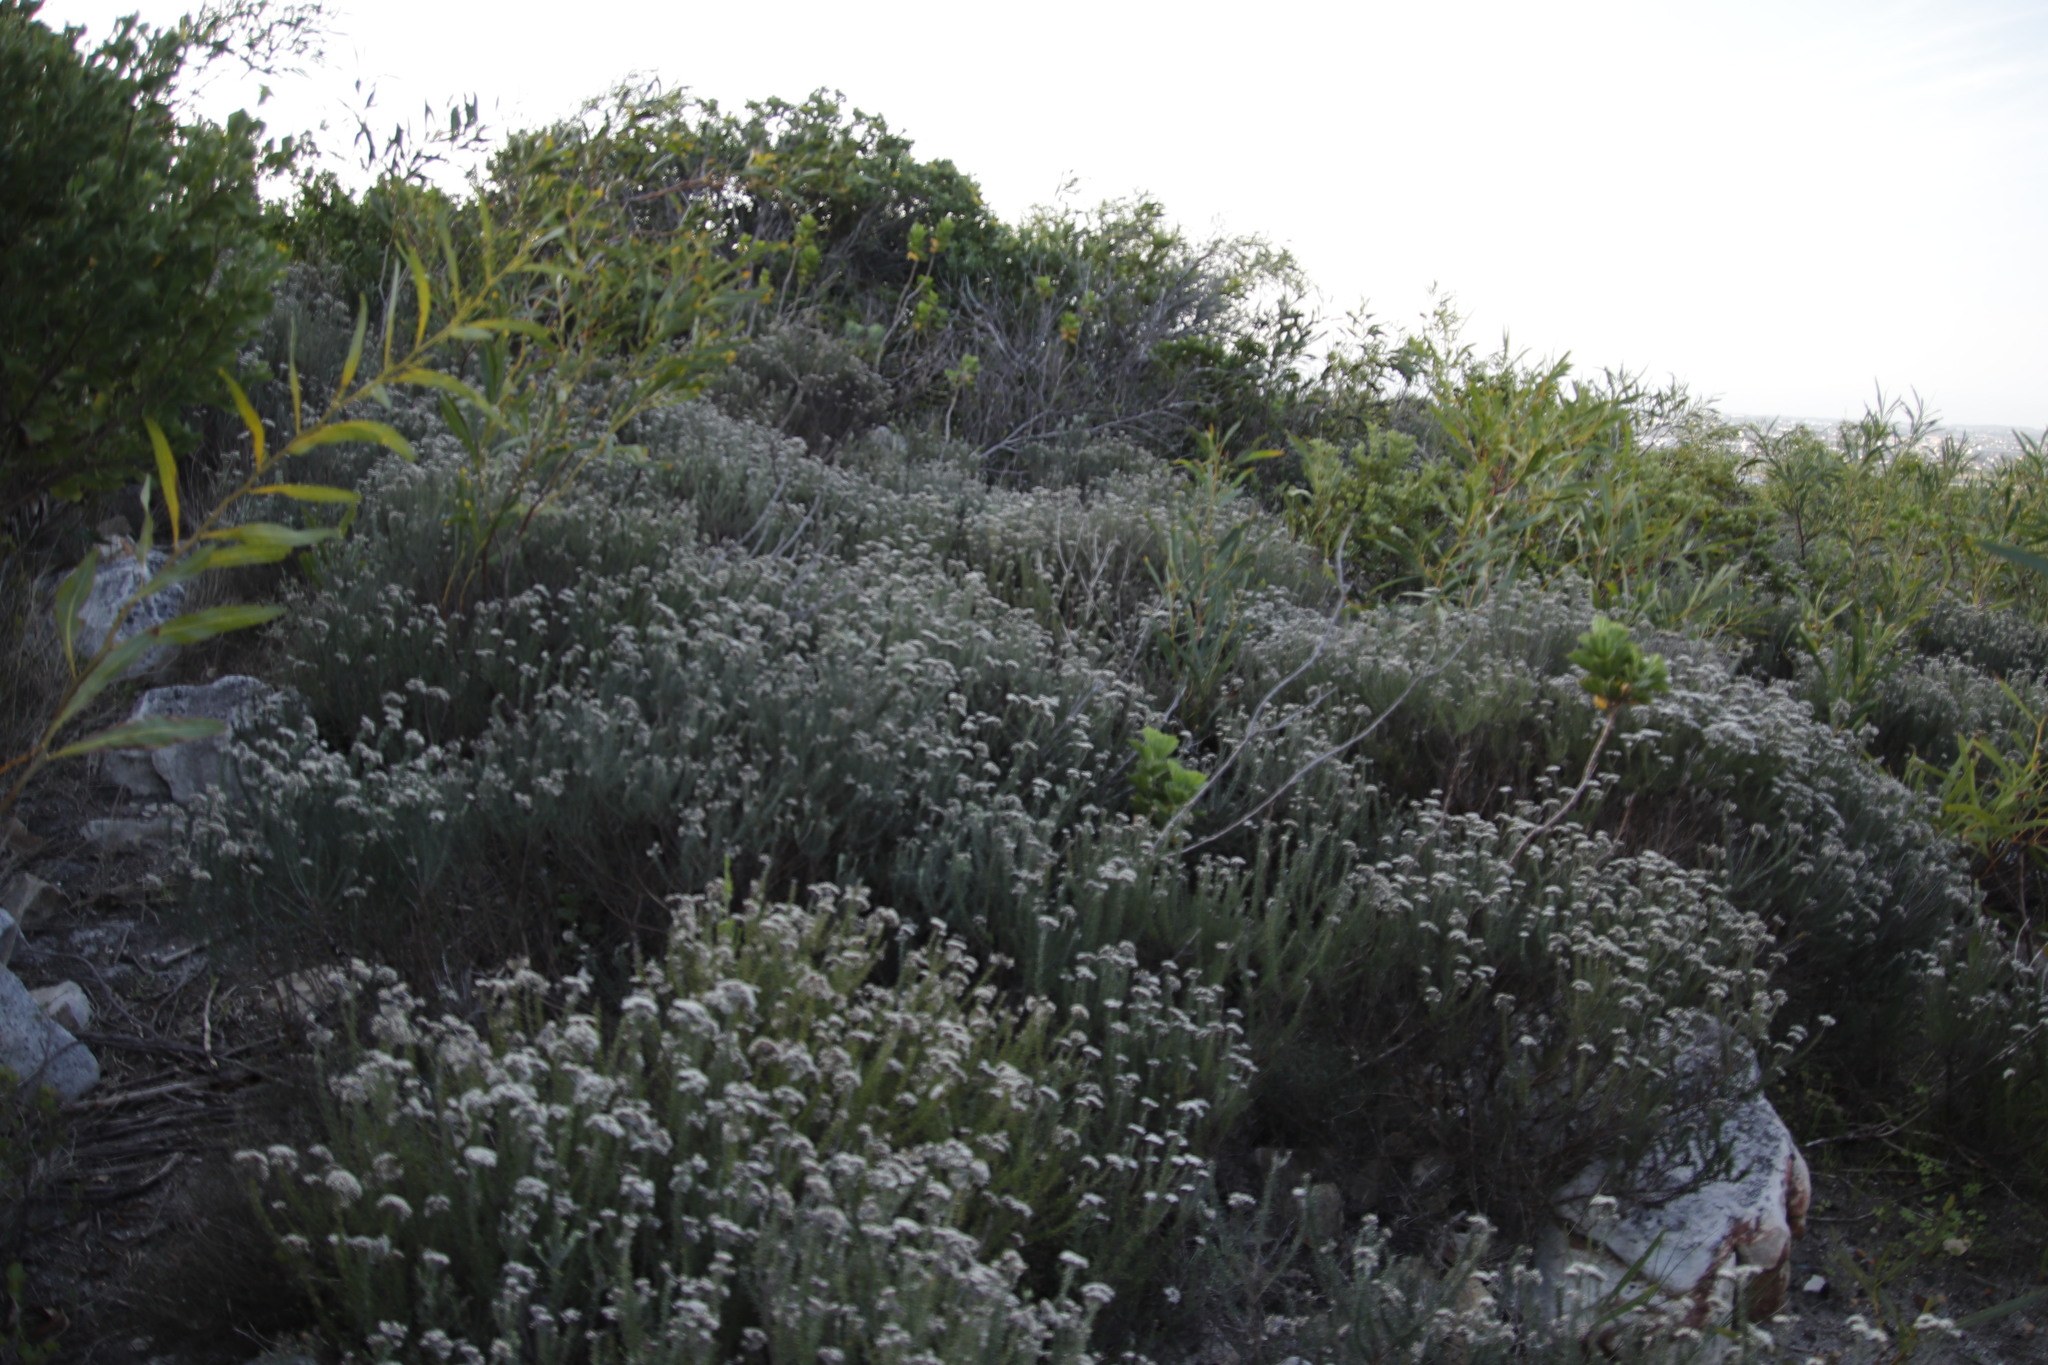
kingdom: Plantae
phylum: Tracheophyta
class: Magnoliopsida
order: Asterales
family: Asteraceae
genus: Metalasia
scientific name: Metalasia densa
